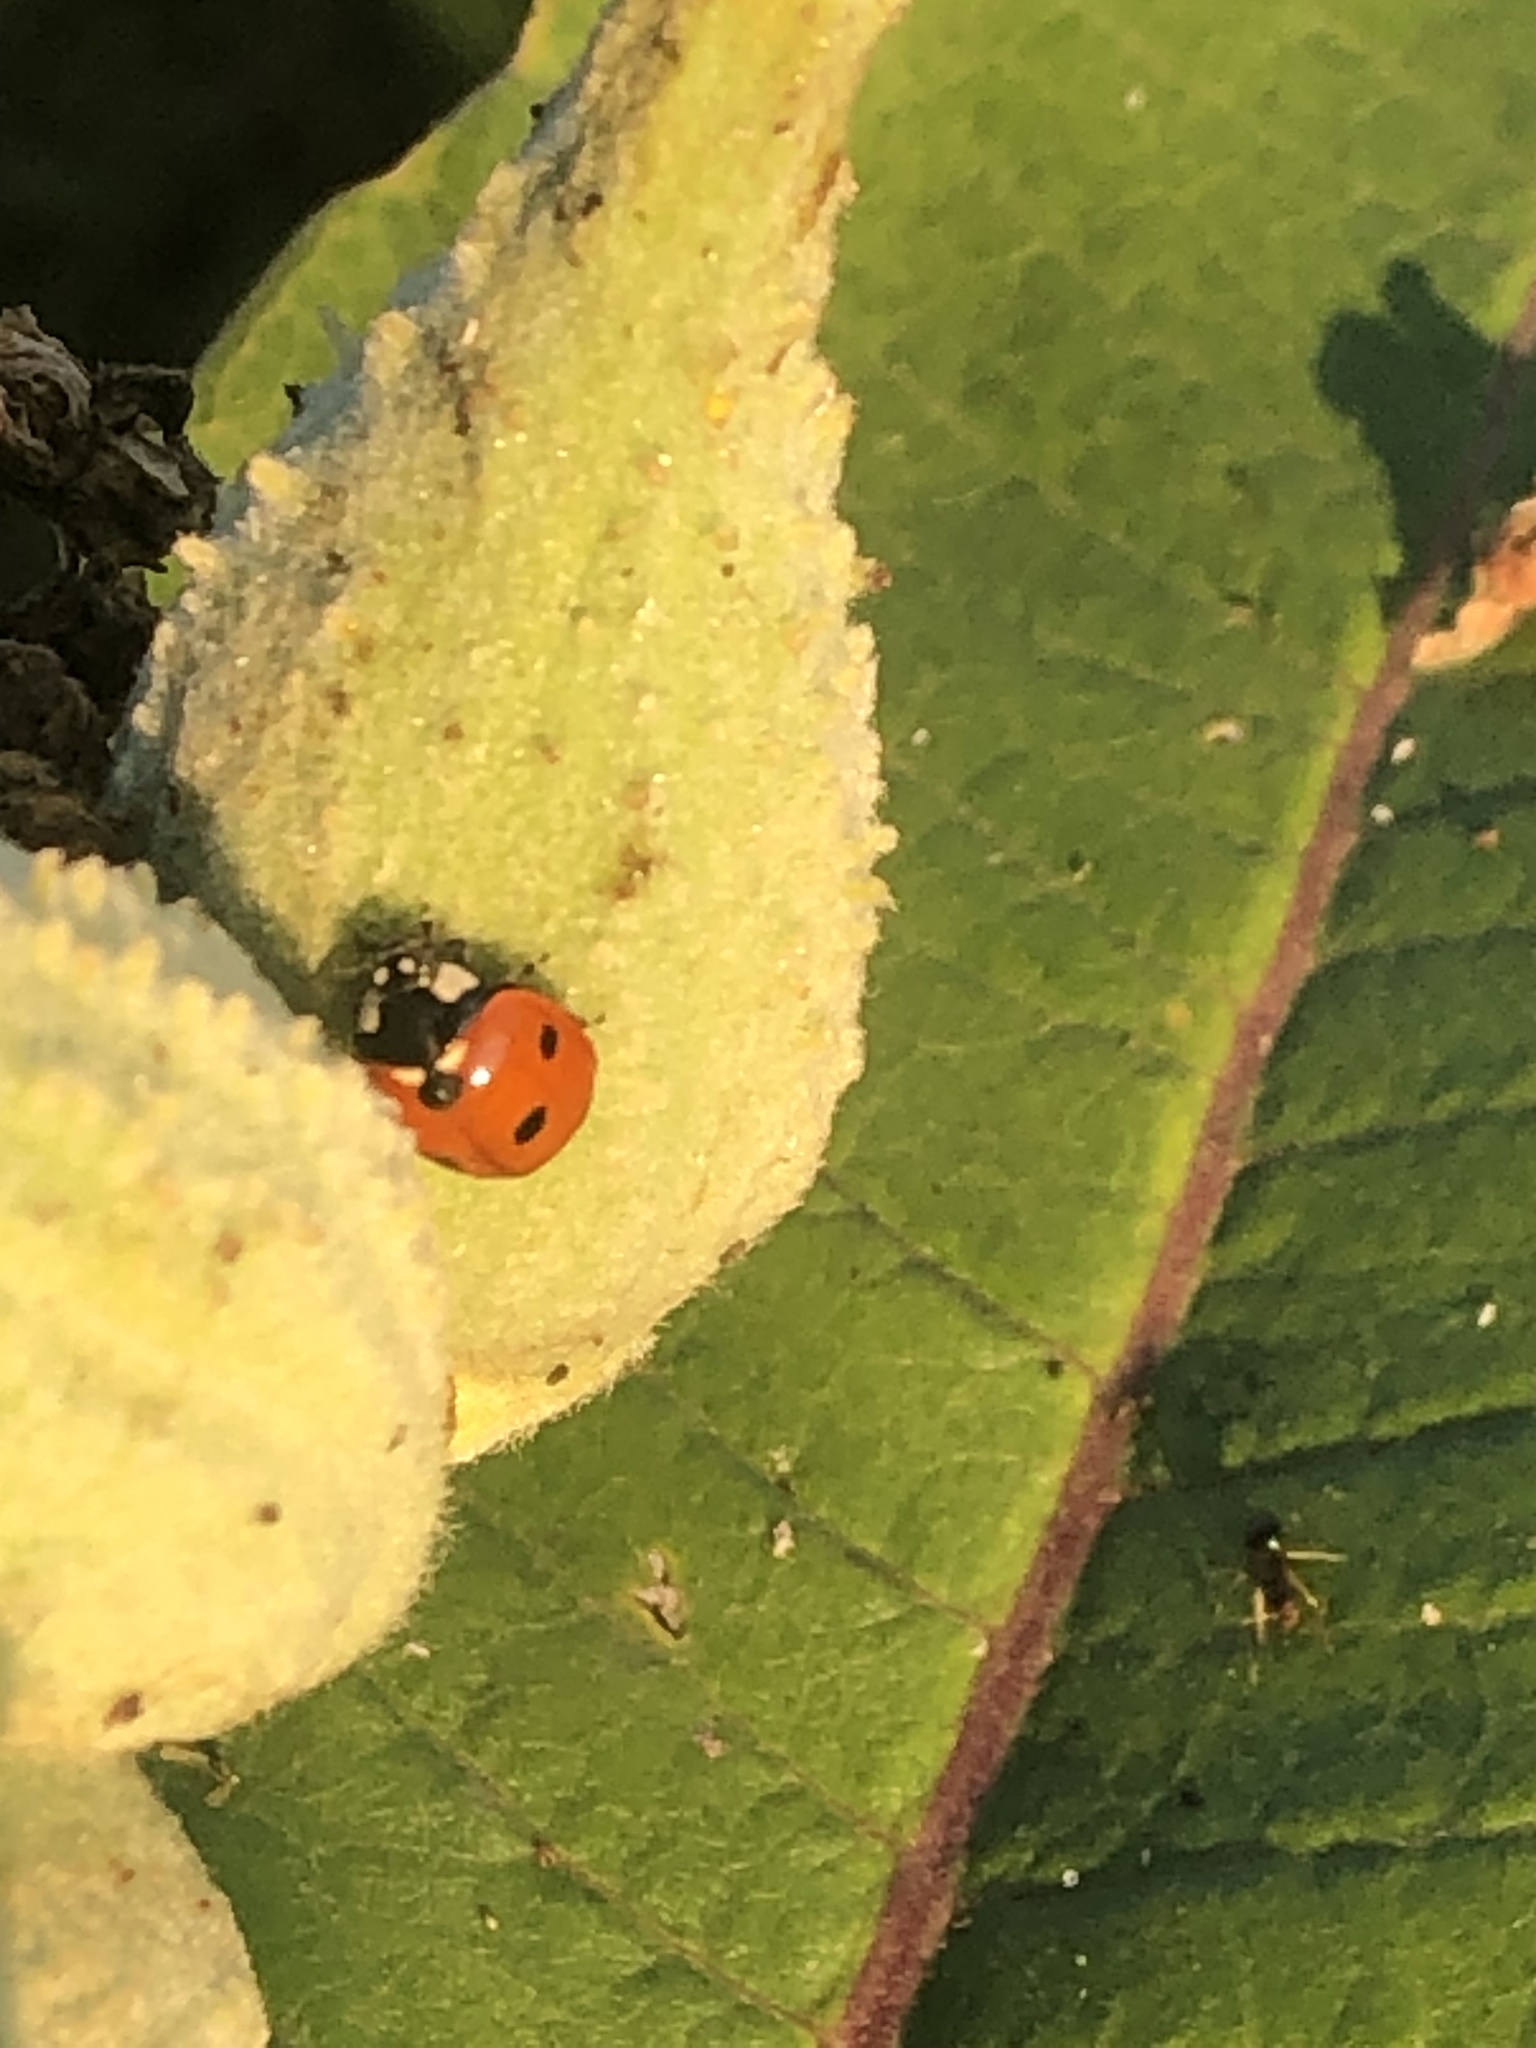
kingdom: Animalia
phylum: Arthropoda
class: Insecta
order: Coleoptera
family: Coccinellidae
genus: Coccinella
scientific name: Coccinella septempunctata
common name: Sevenspotted lady beetle
